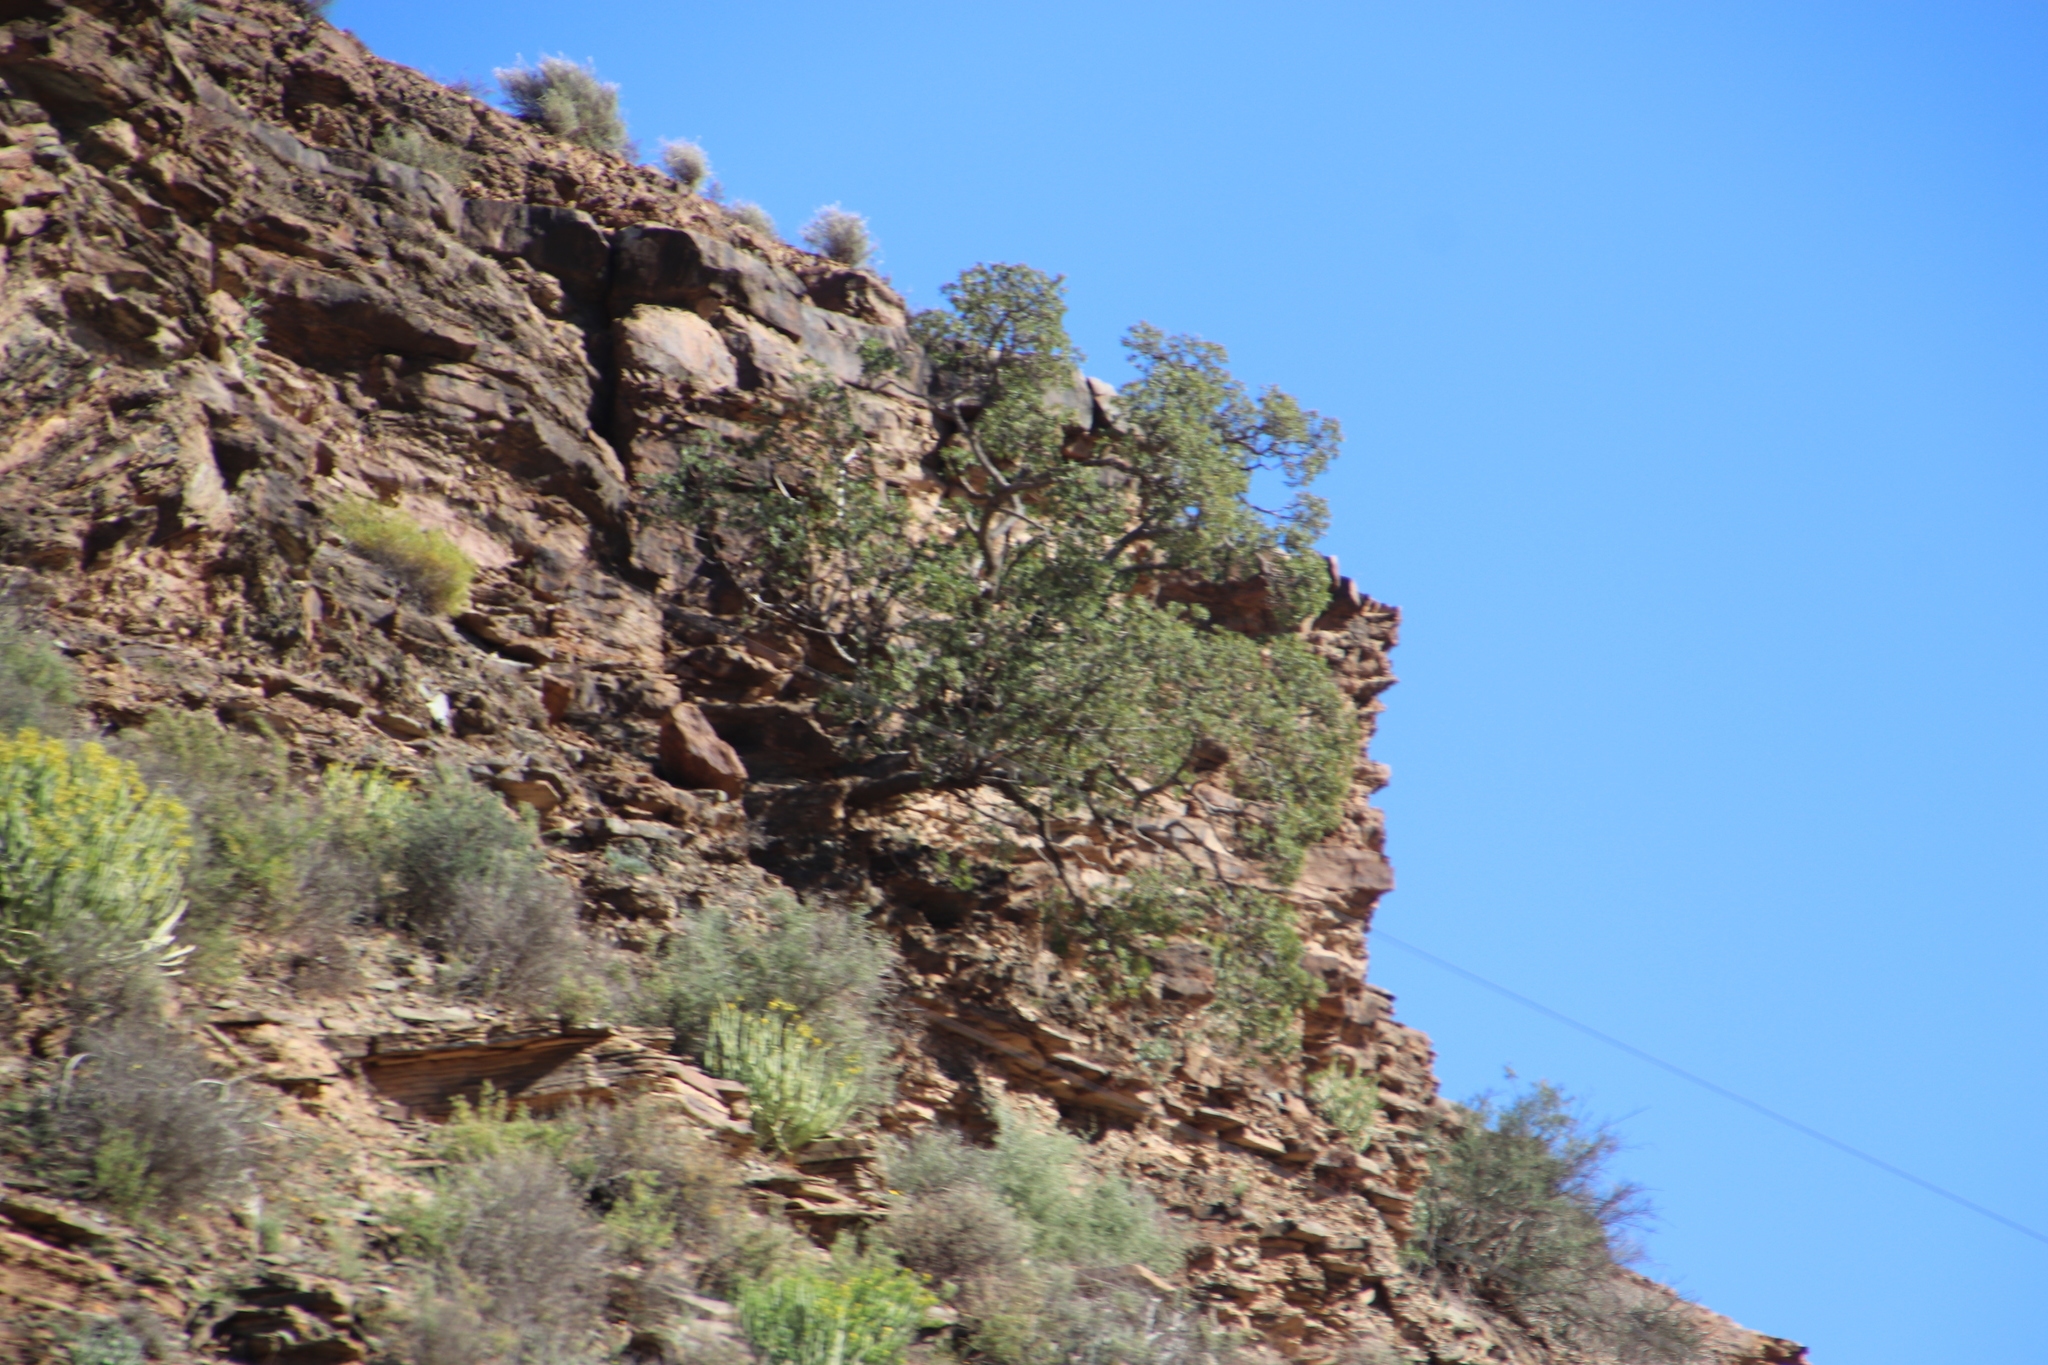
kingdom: Plantae
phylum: Tracheophyta
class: Magnoliopsida
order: Rosales
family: Moraceae
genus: Ficus
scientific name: Ficus cordata
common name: Namaqua rock fig
